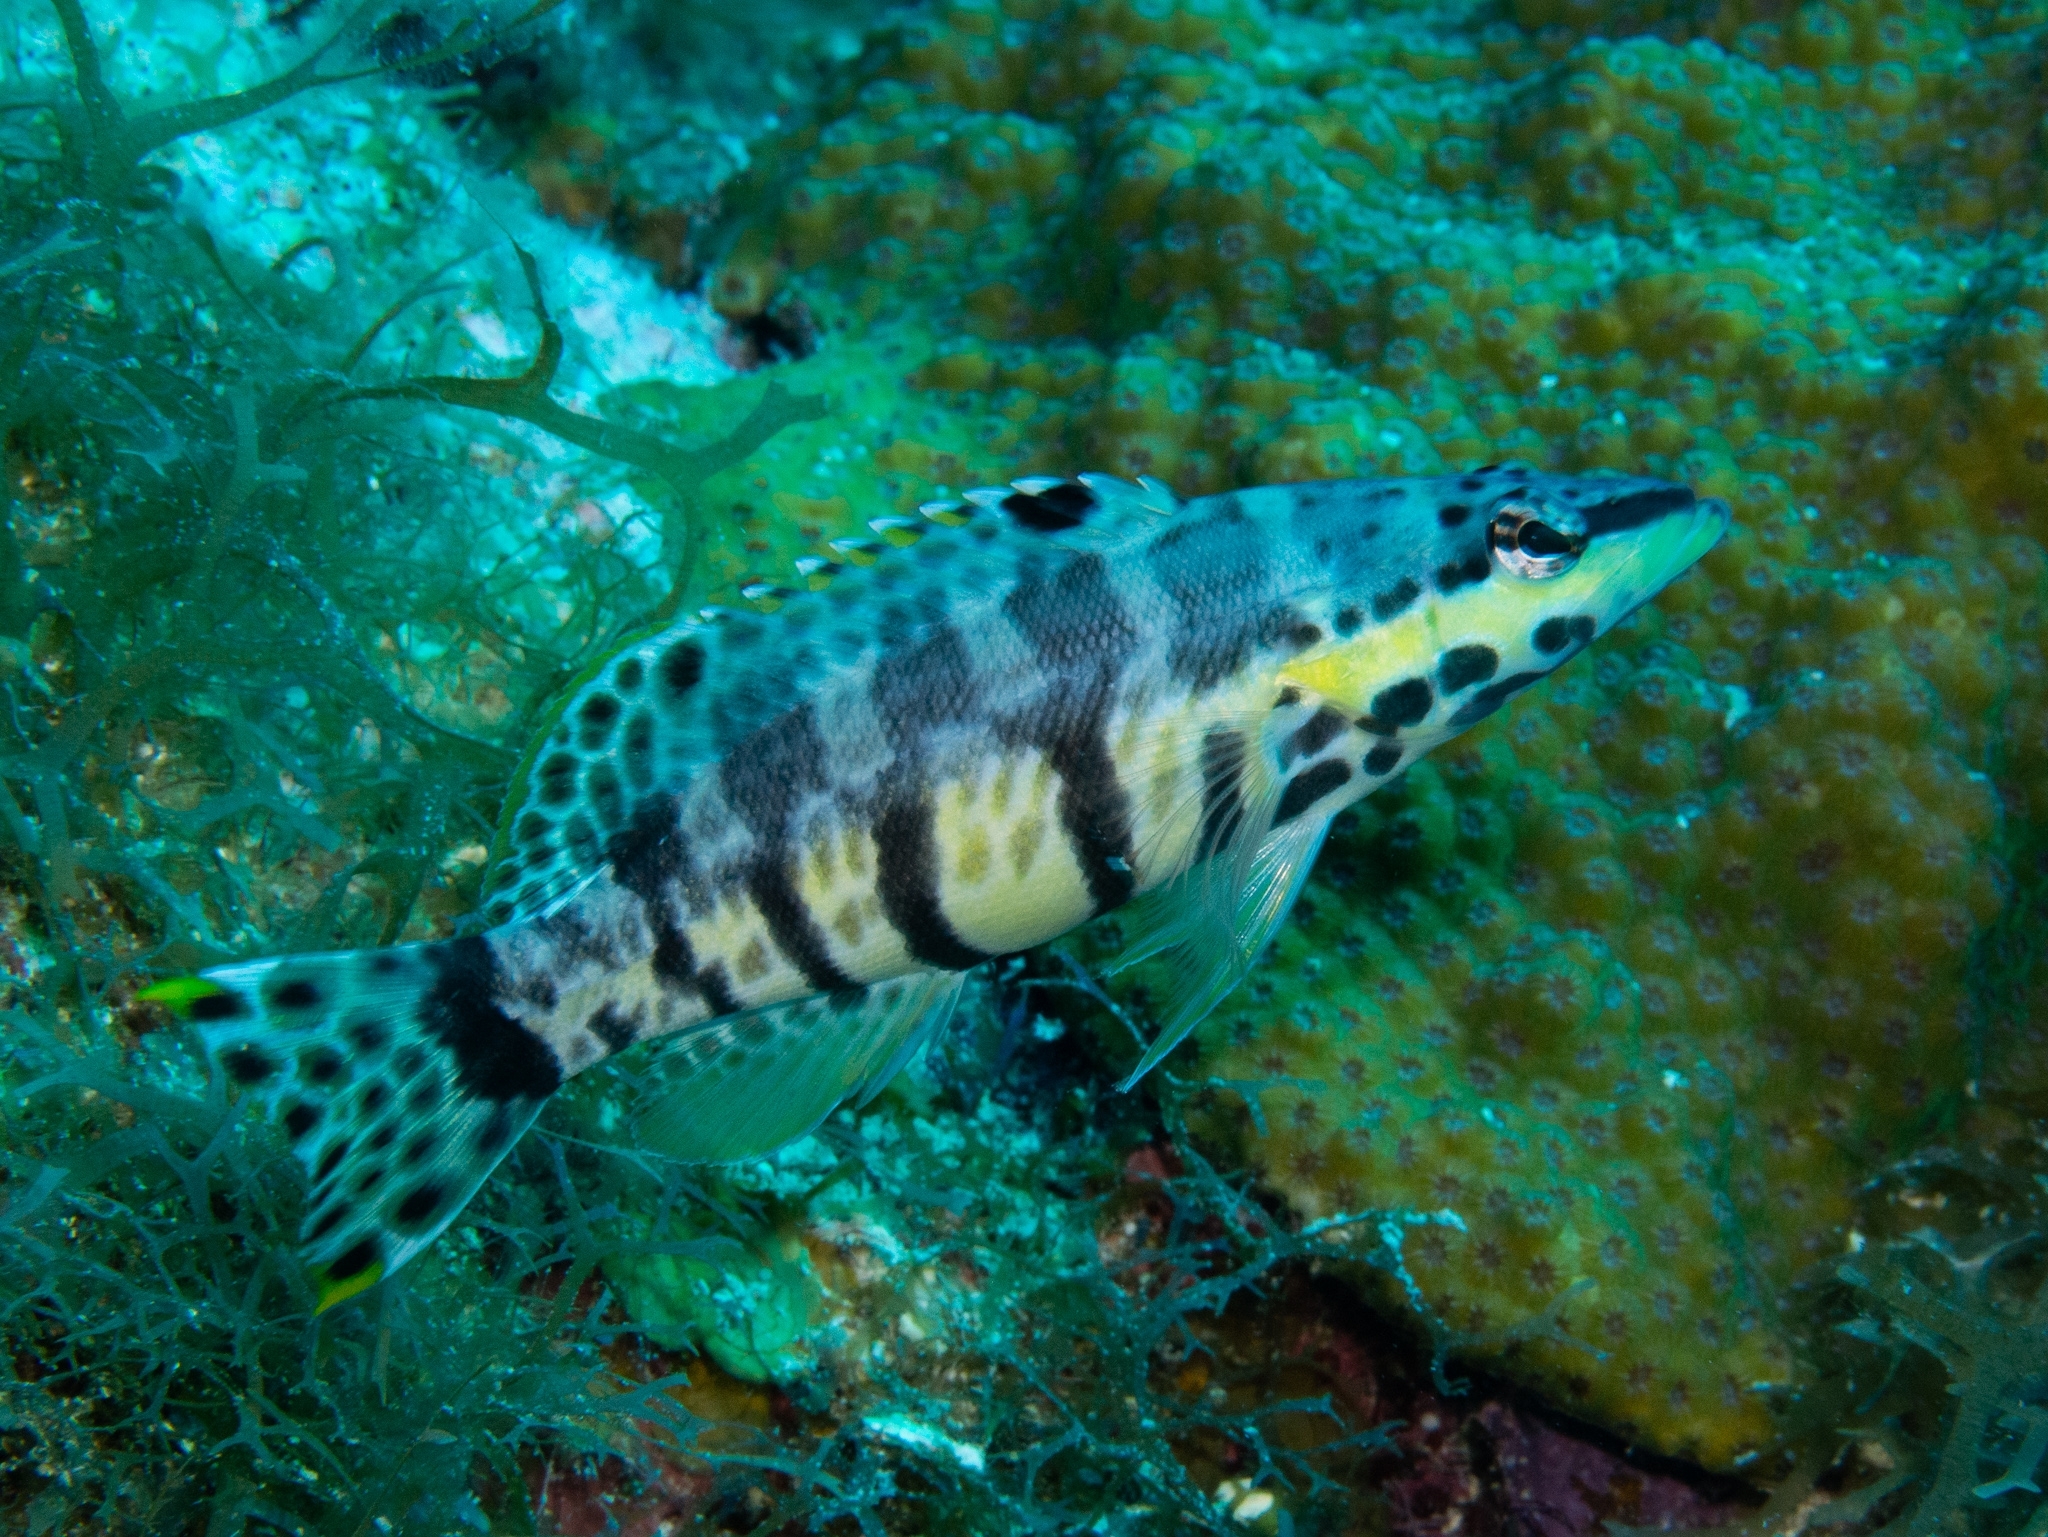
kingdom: Animalia
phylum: Chordata
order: Perciformes
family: Serranidae
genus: Serranus
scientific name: Serranus tigrinus
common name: Harlequin bass
